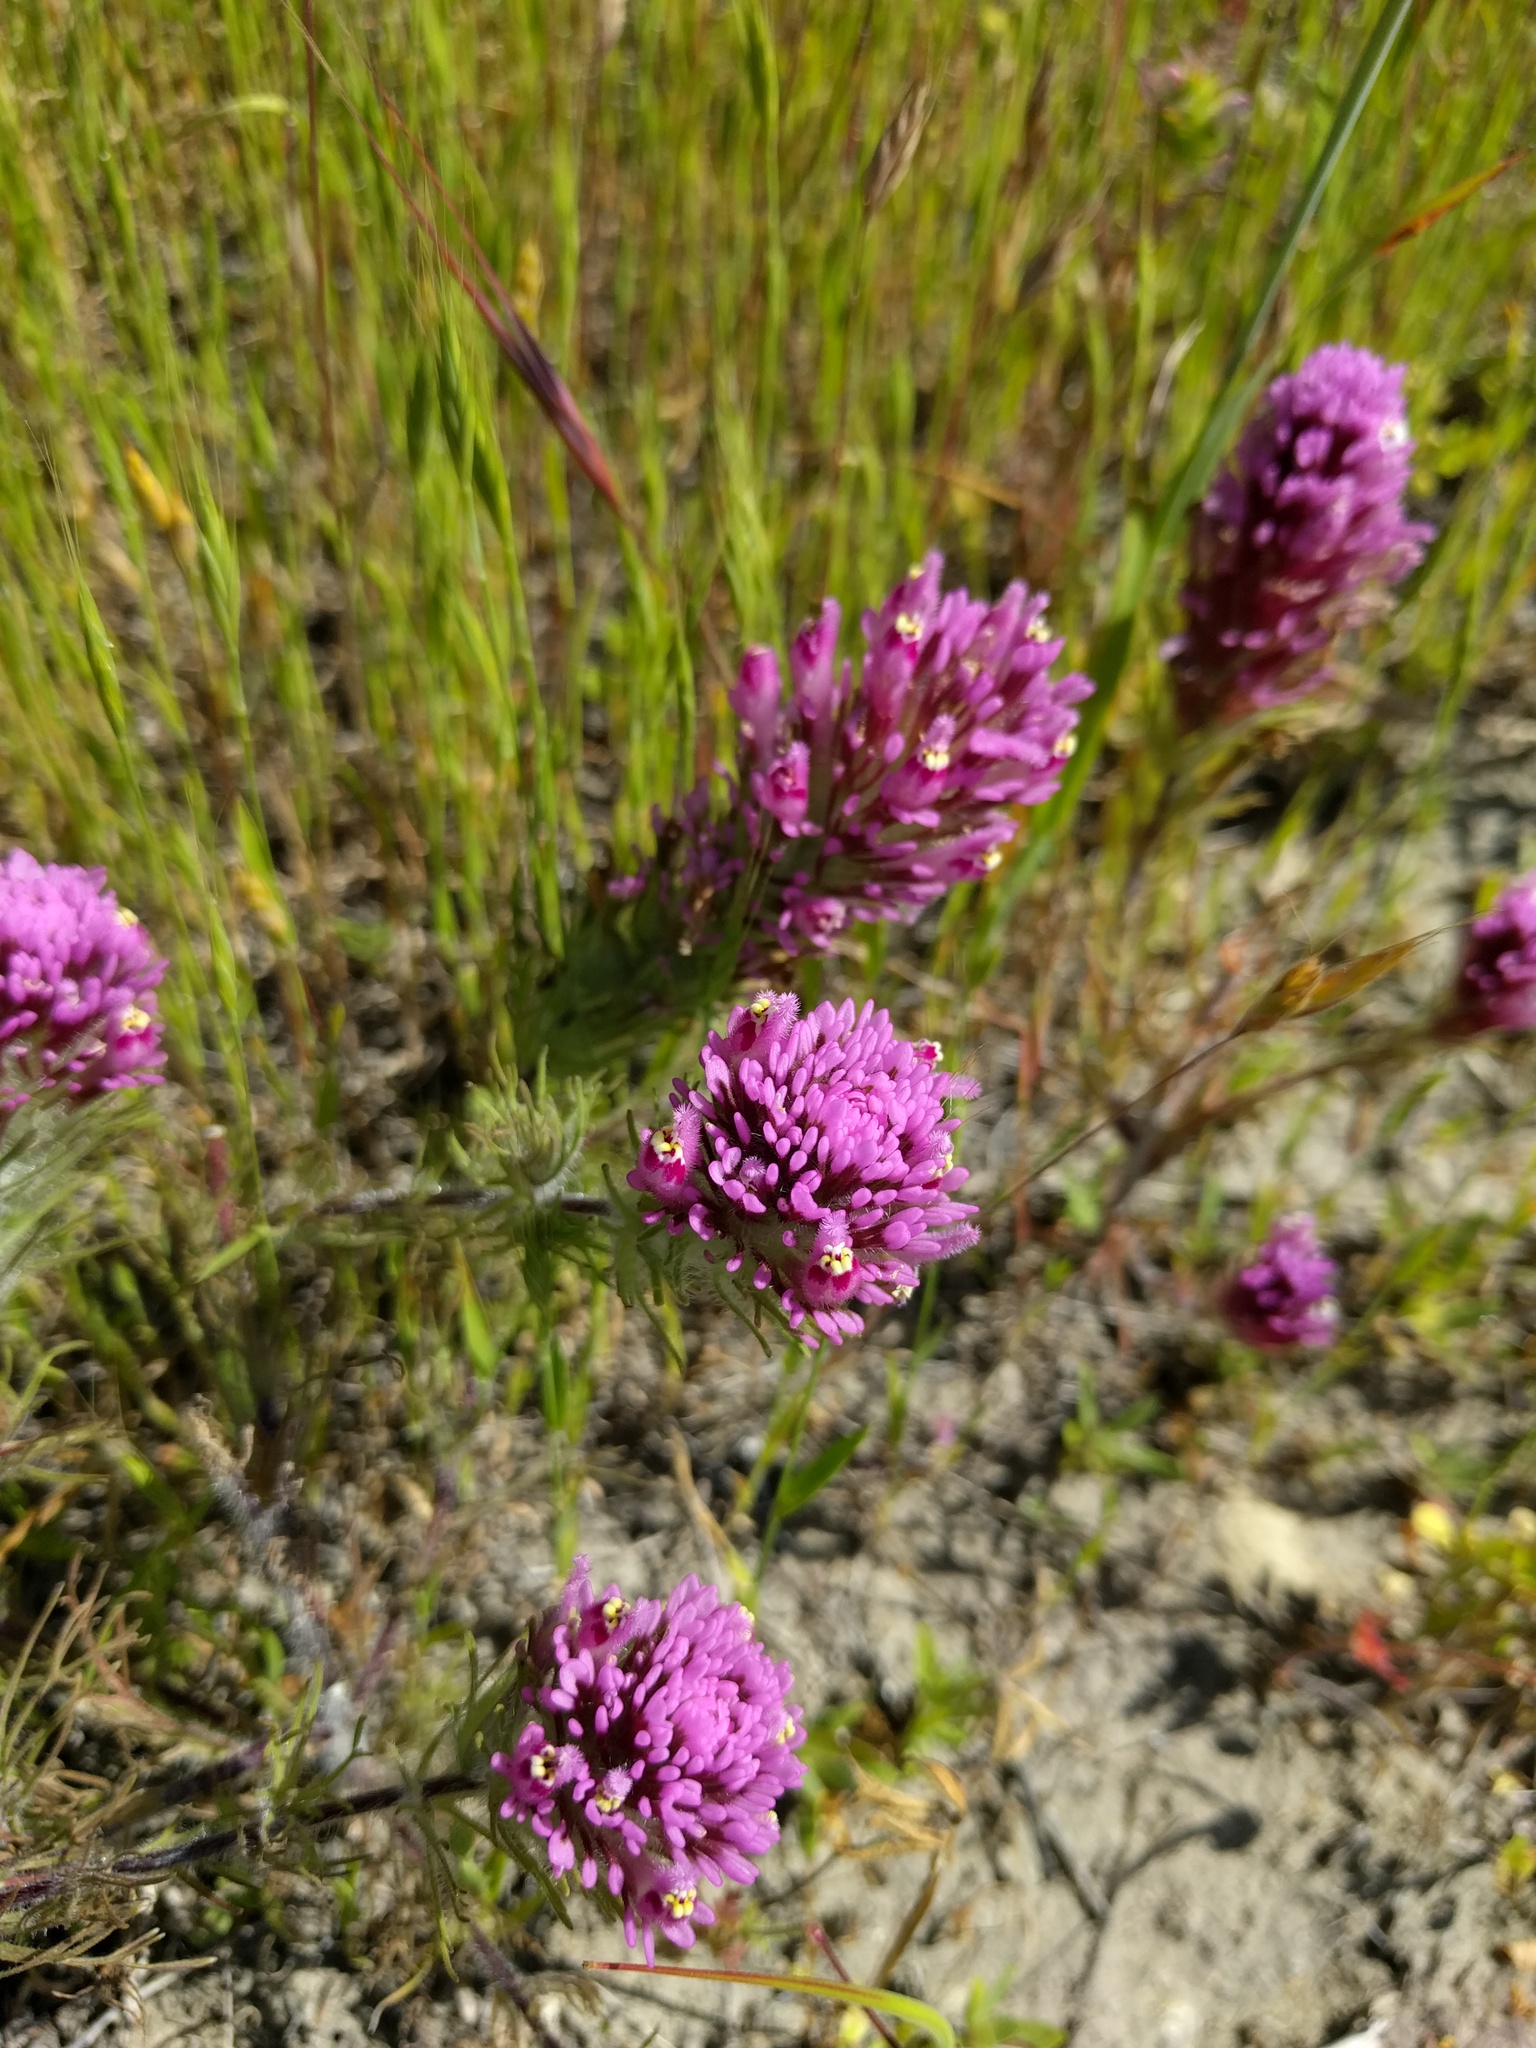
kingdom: Plantae
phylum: Tracheophyta
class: Magnoliopsida
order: Lamiales
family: Orobanchaceae
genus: Castilleja
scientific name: Castilleja exserta
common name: Purple owl-clover
